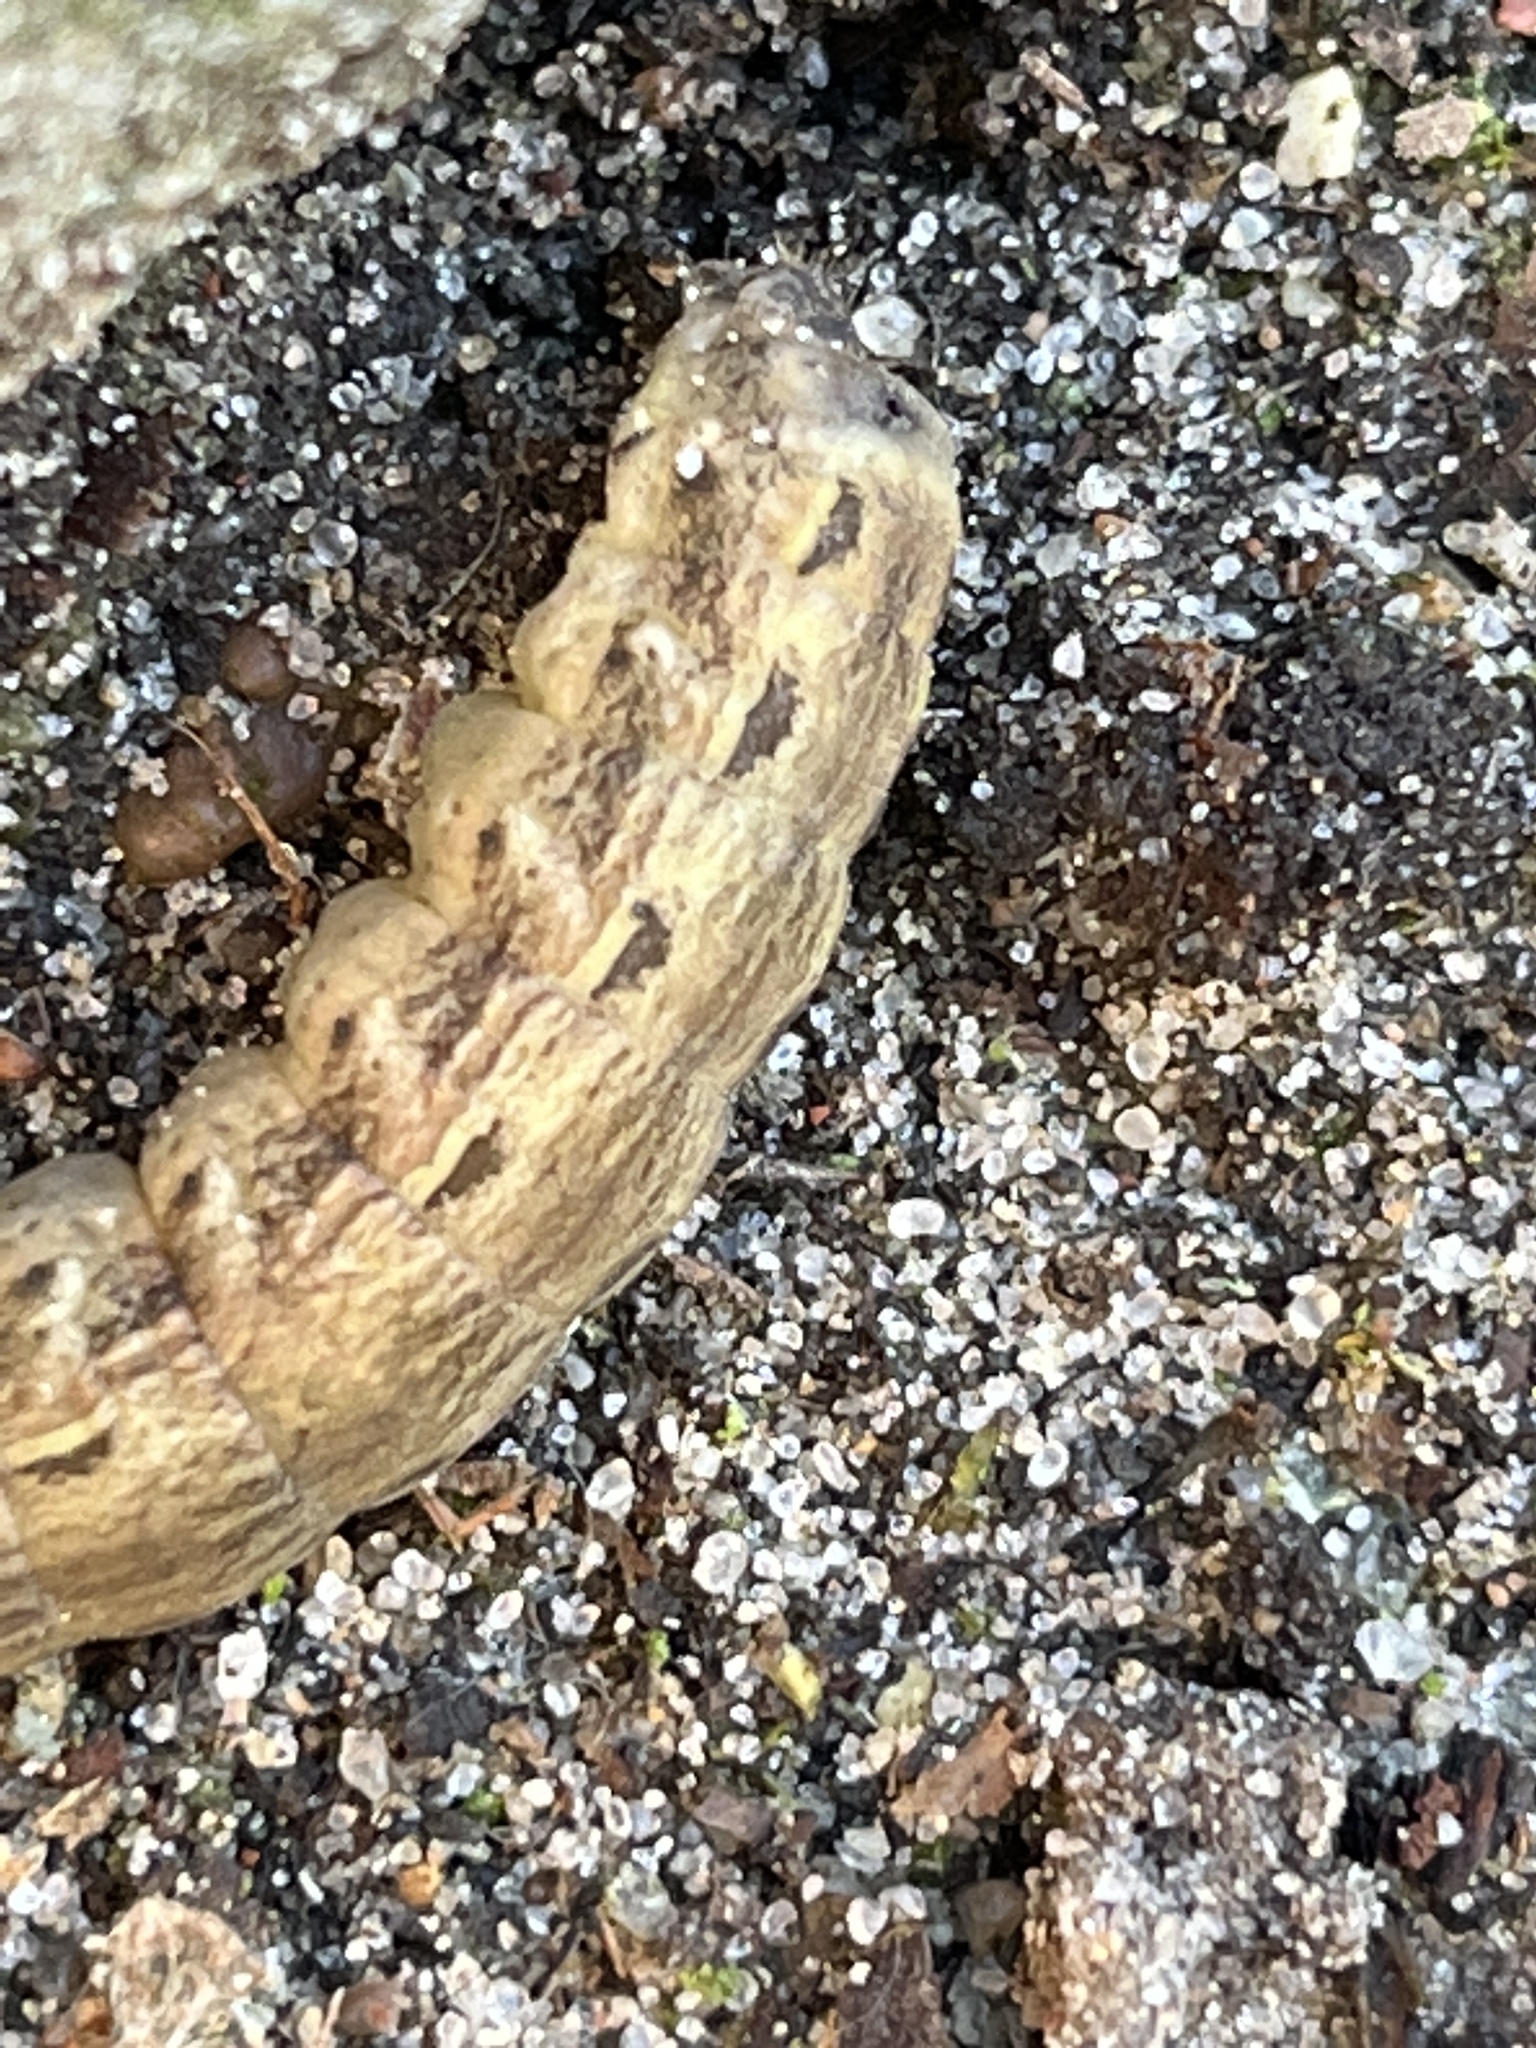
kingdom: Animalia
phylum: Arthropoda
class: Insecta
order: Lepidoptera
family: Noctuidae
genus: Noctua
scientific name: Noctua pronuba
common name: Large yellow underwing
